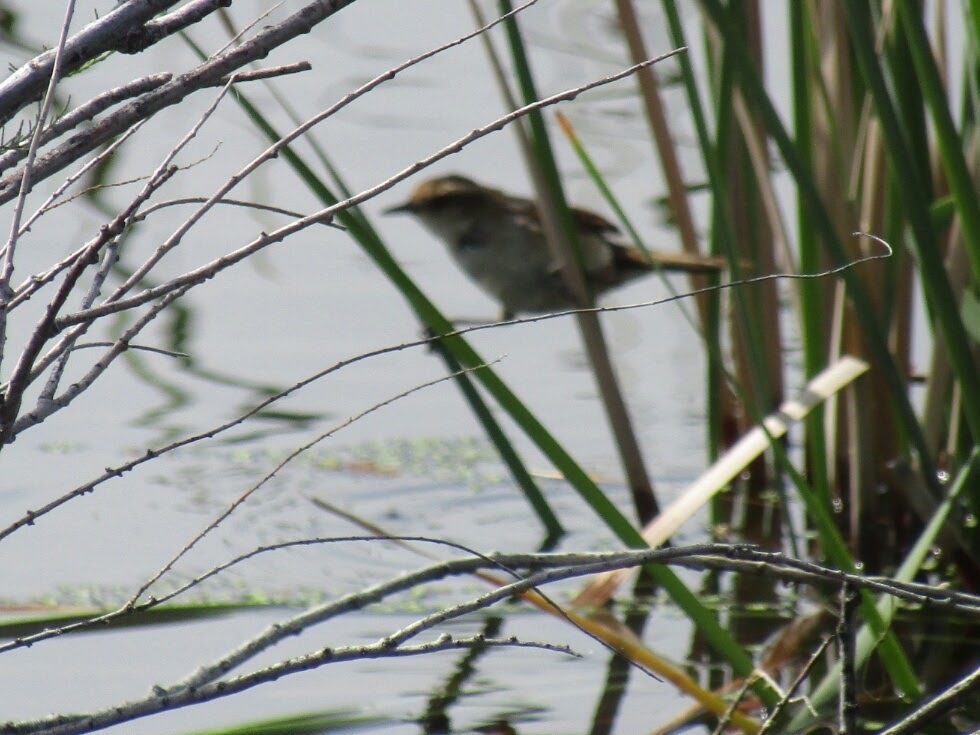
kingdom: Animalia
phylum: Chordata
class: Aves
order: Passeriformes
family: Furnariidae
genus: Phleocryptes
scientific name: Phleocryptes melanops
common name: Wren-like rushbird
